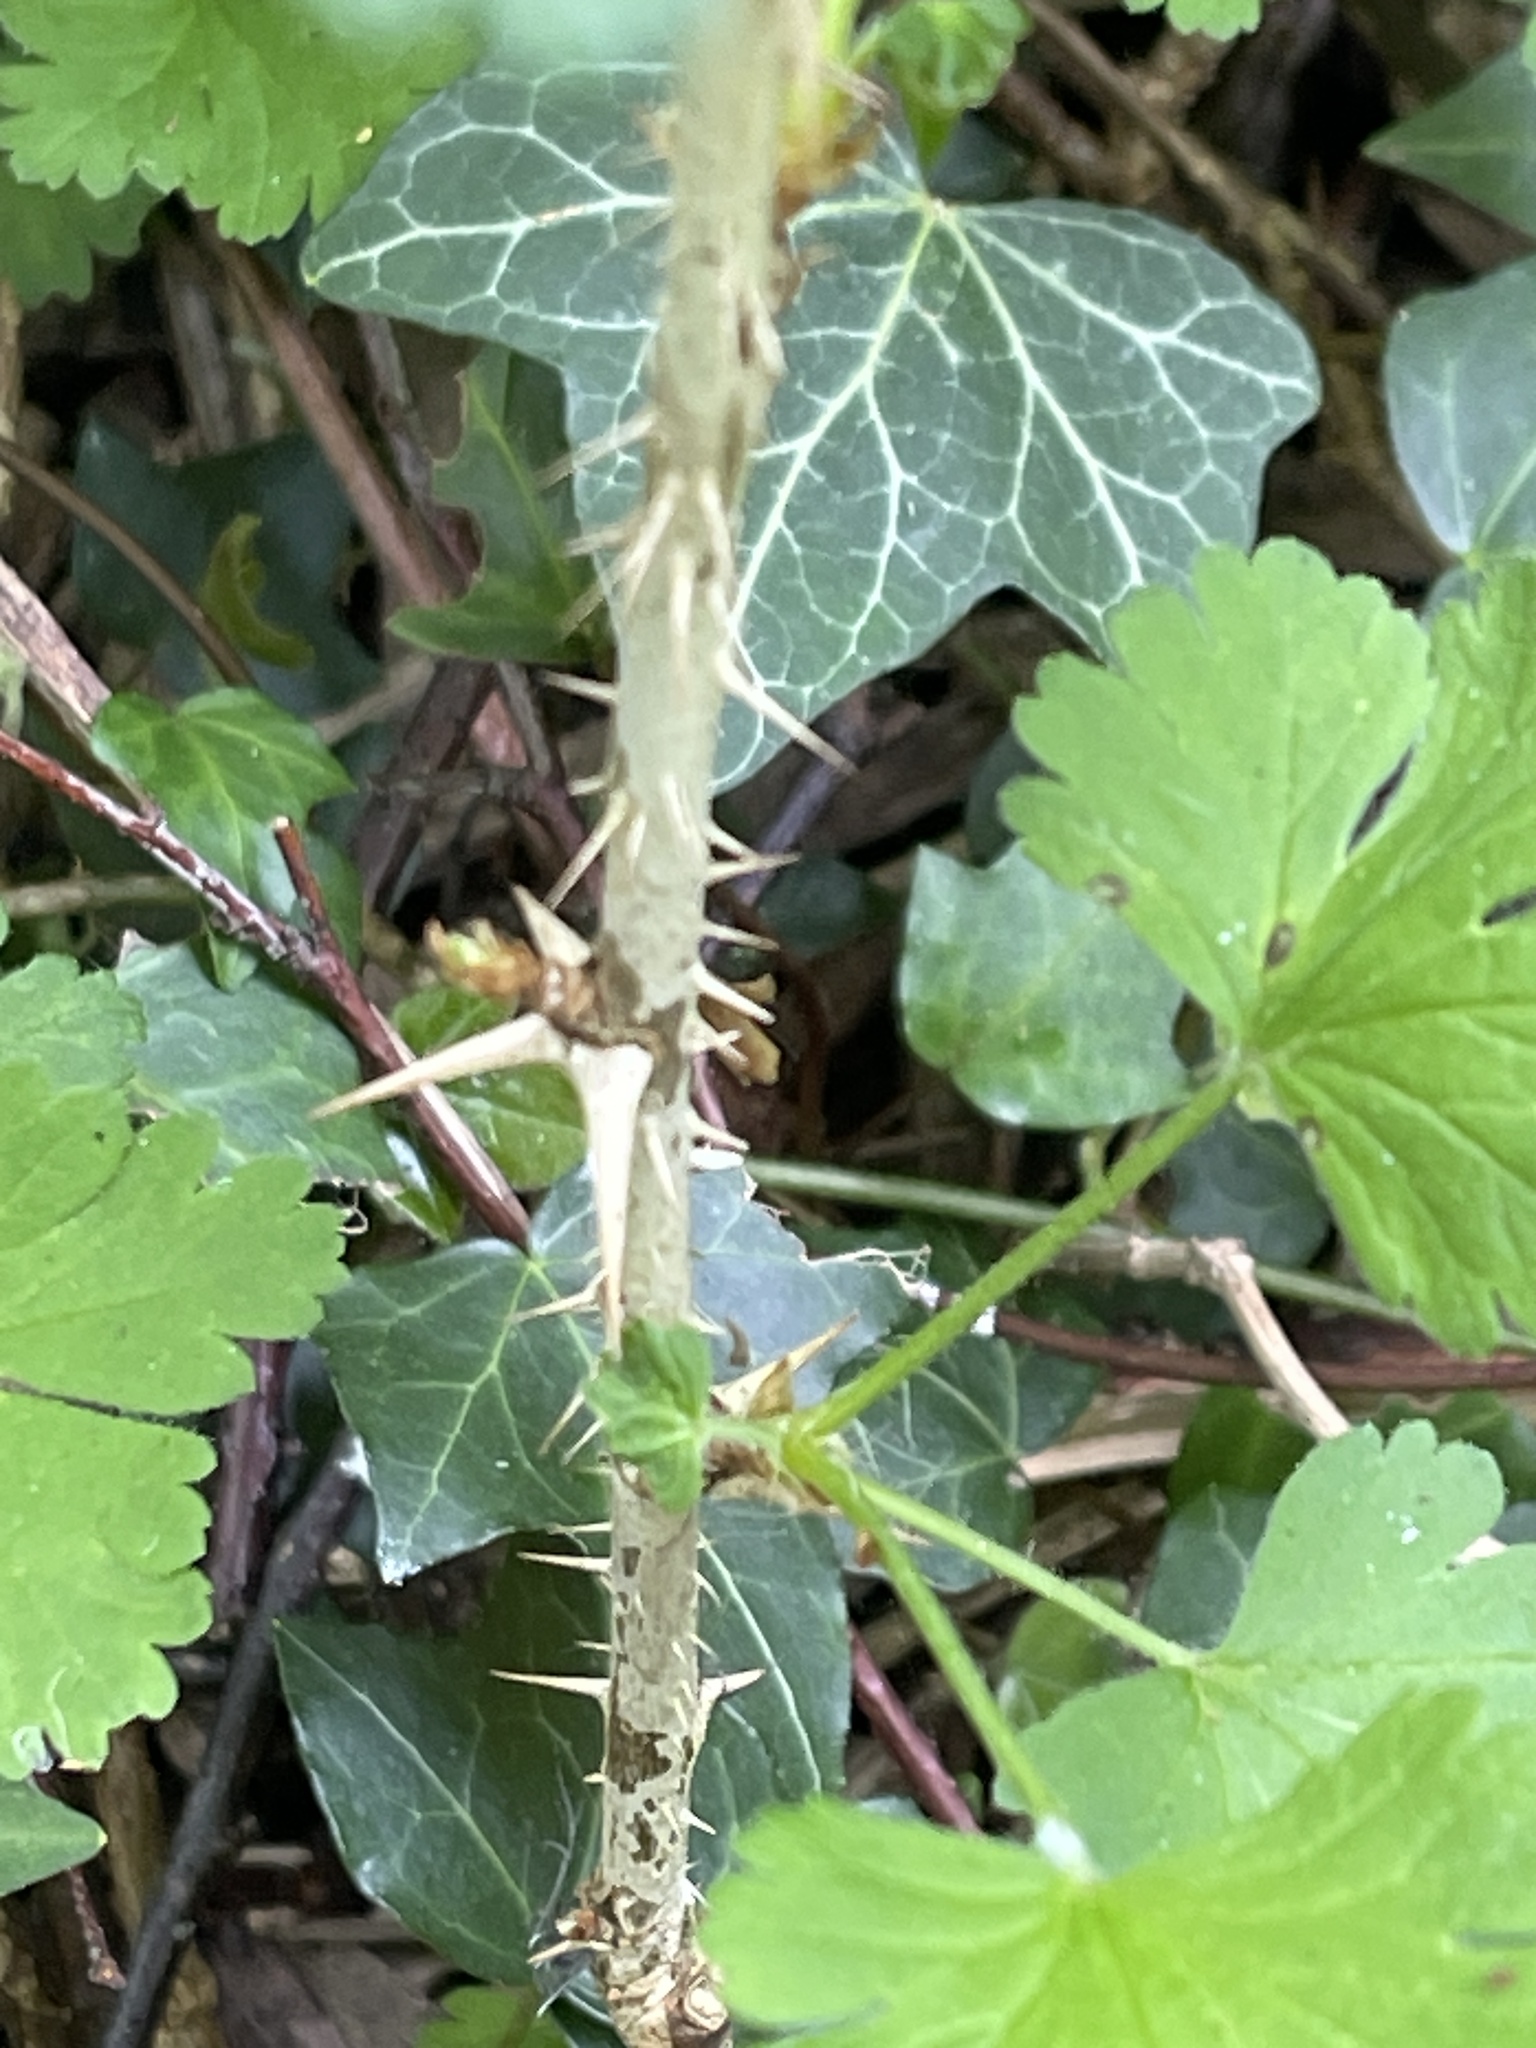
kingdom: Plantae
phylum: Tracheophyta
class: Magnoliopsida
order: Saxifragales
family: Grossulariaceae
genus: Ribes
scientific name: Ribes uva-crispa
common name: Gooseberry
